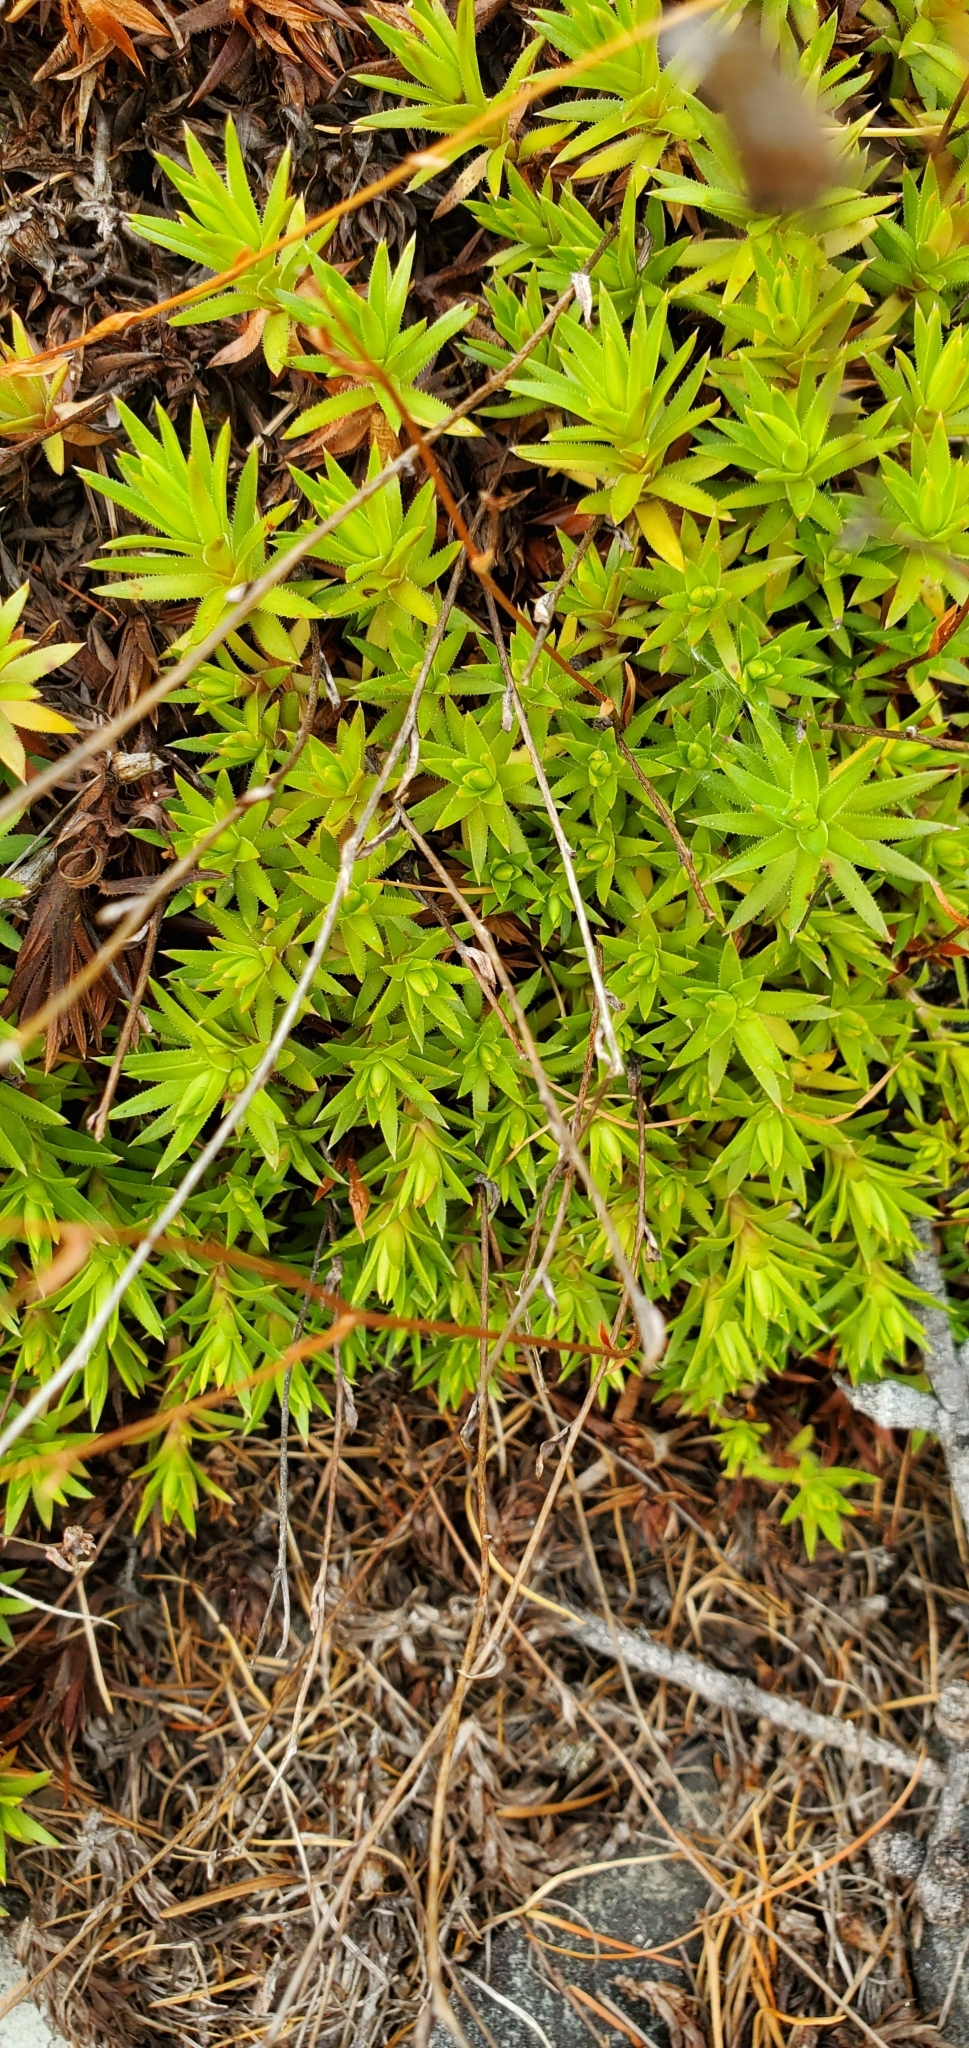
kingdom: Plantae
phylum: Tracheophyta
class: Magnoliopsida
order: Saxifragales
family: Saxifragaceae
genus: Saxifraga
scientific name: Saxifraga bronchialis
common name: Matted saxifrage
